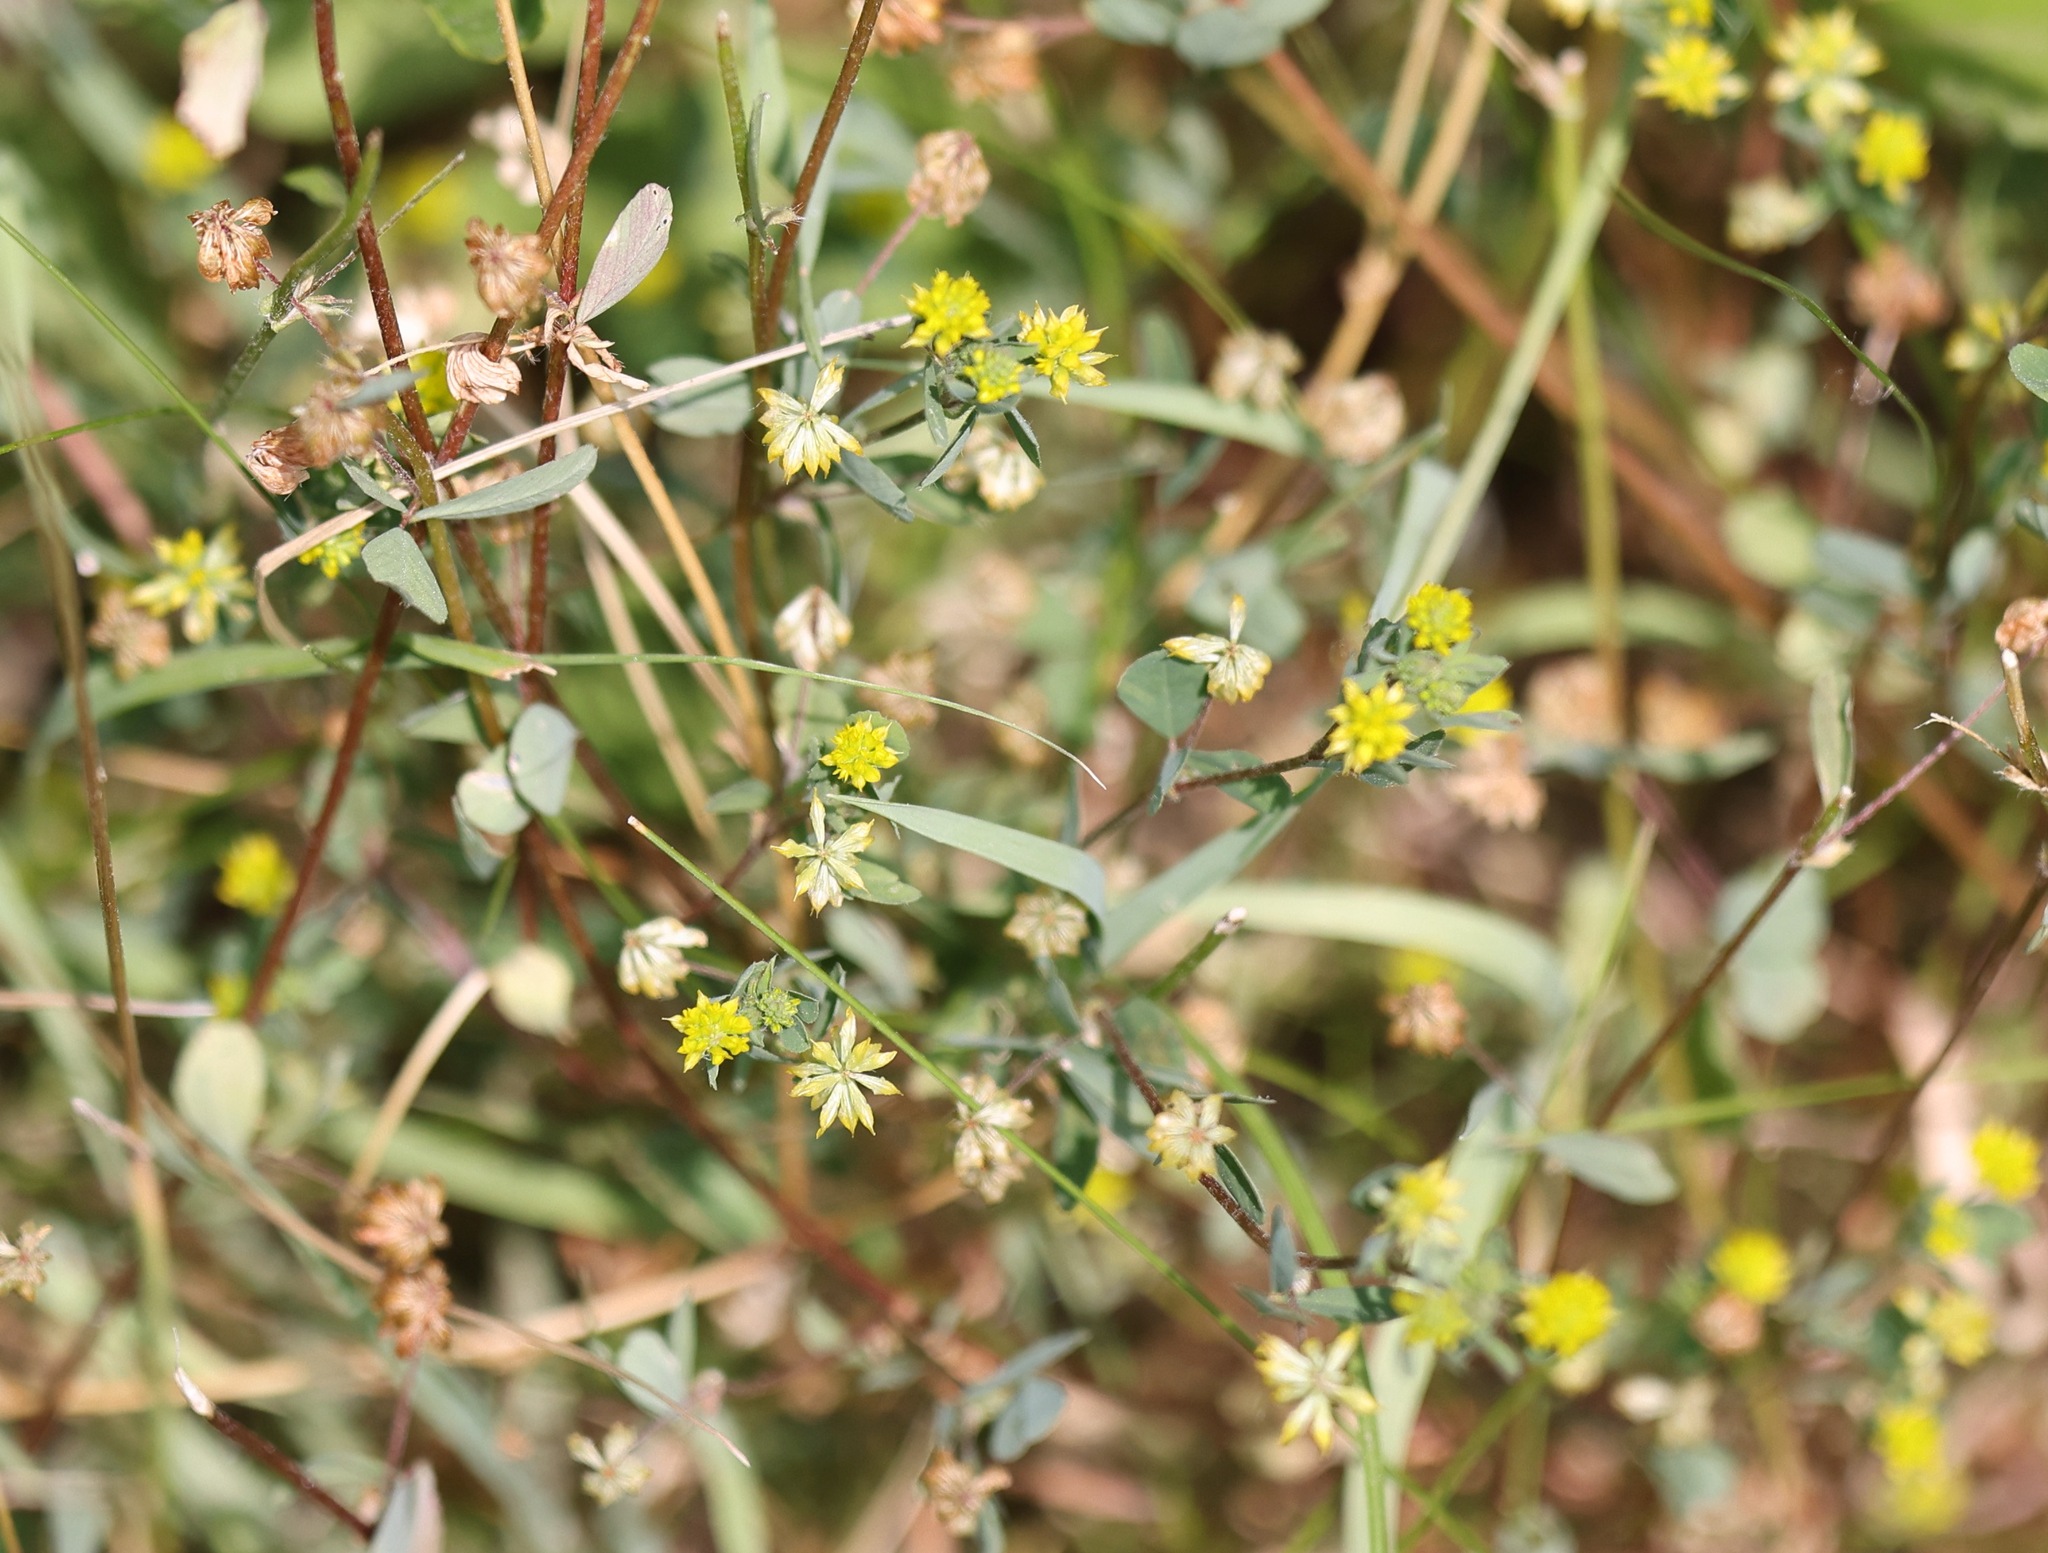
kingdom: Plantae
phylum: Tracheophyta
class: Magnoliopsida
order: Fabales
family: Fabaceae
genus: Trifolium
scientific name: Trifolium dubium
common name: Suckling clover
